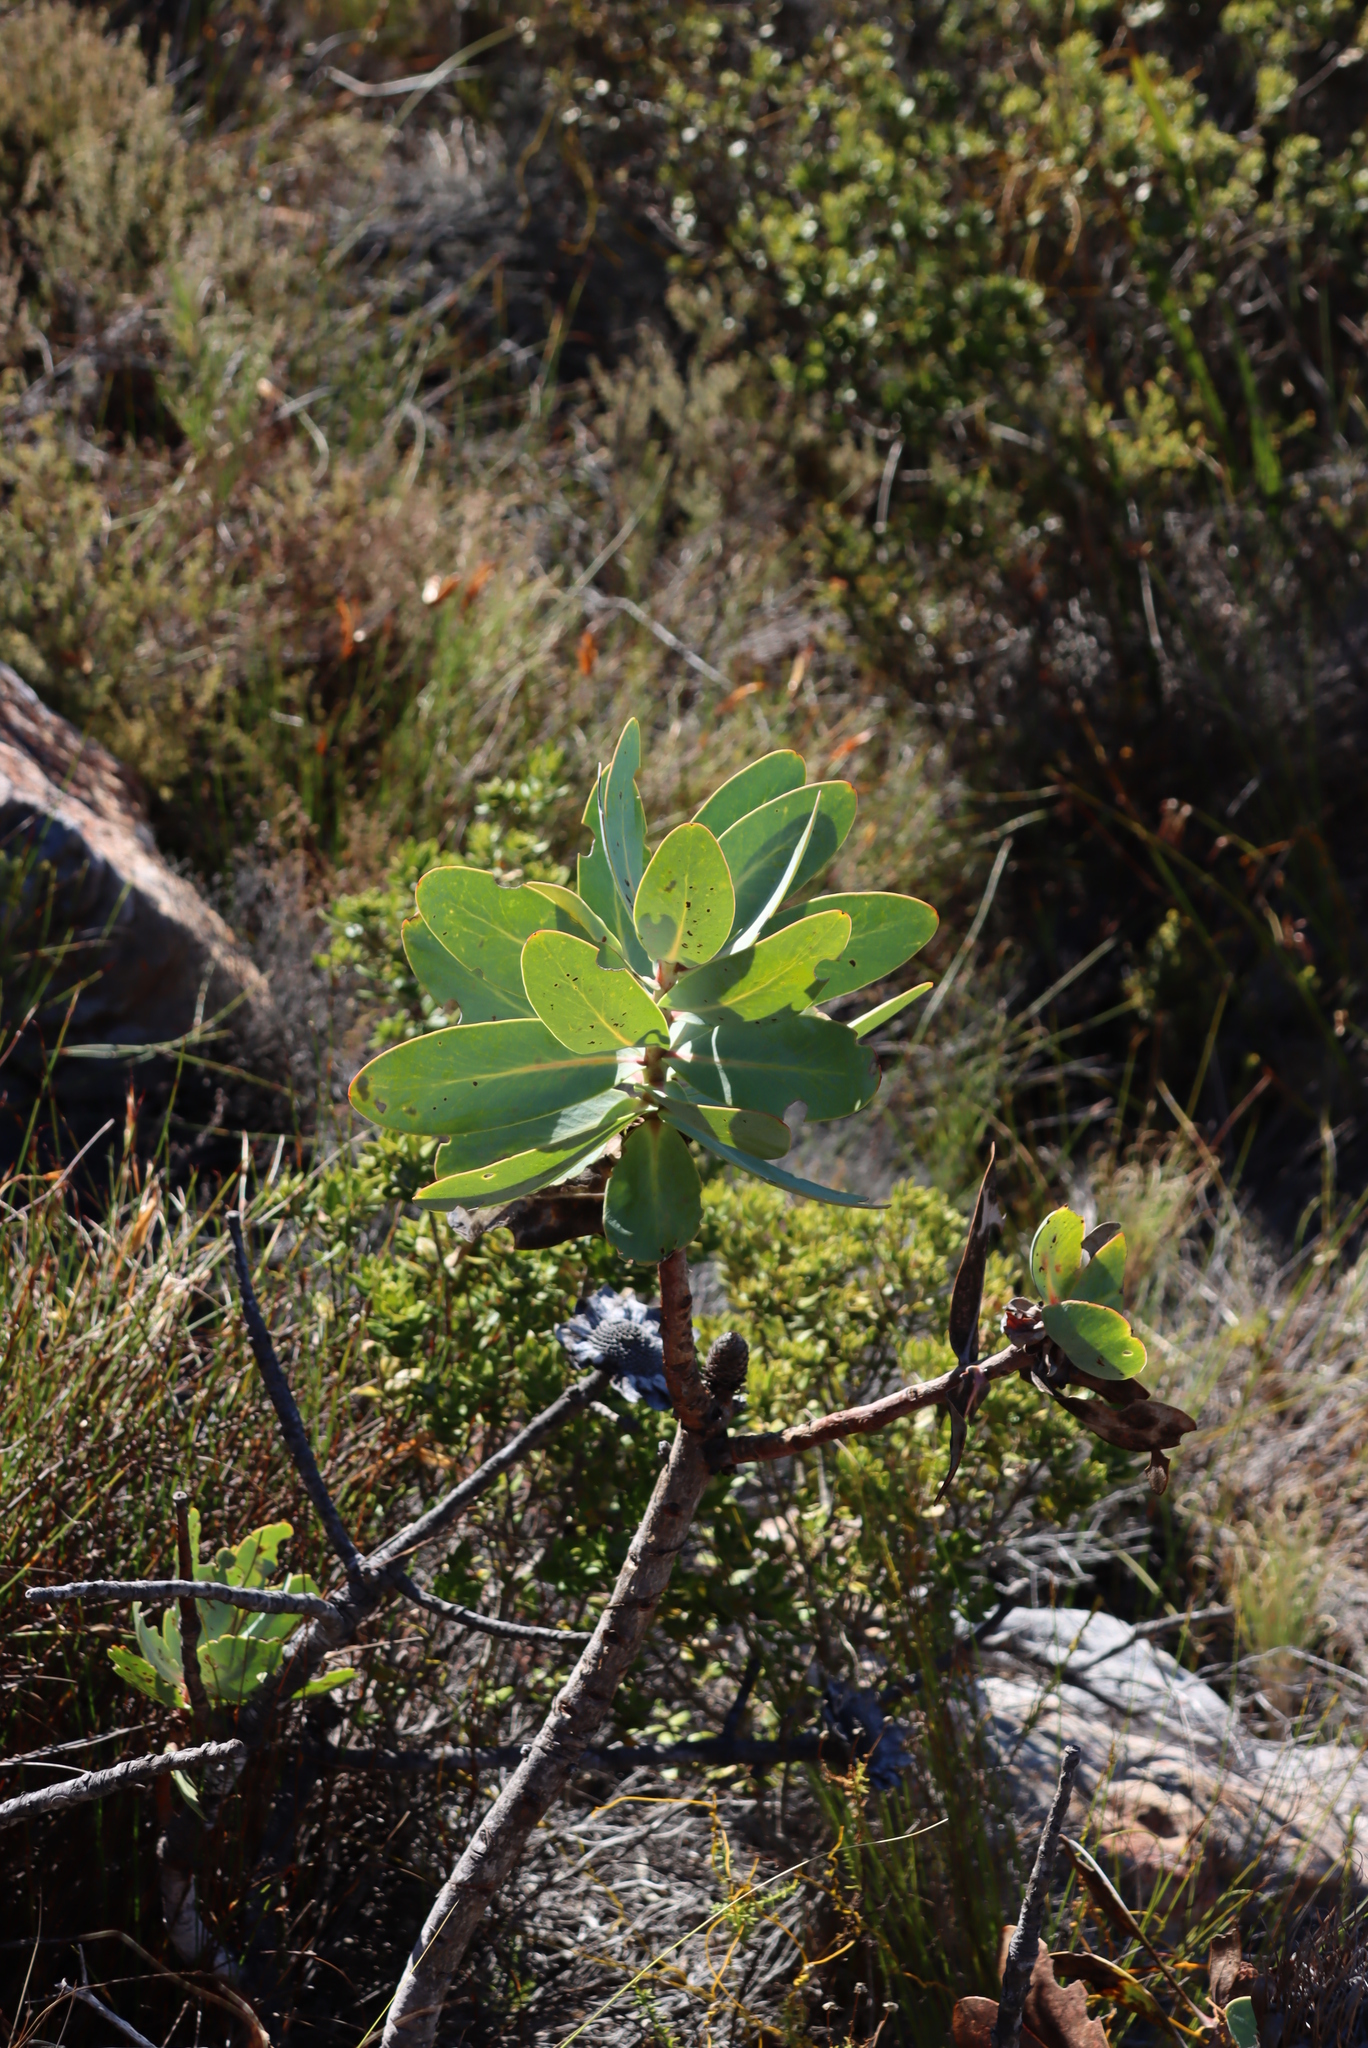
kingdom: Plantae
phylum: Tracheophyta
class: Magnoliopsida
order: Proteales
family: Proteaceae
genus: Protea
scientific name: Protea nitida
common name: Tree protea
